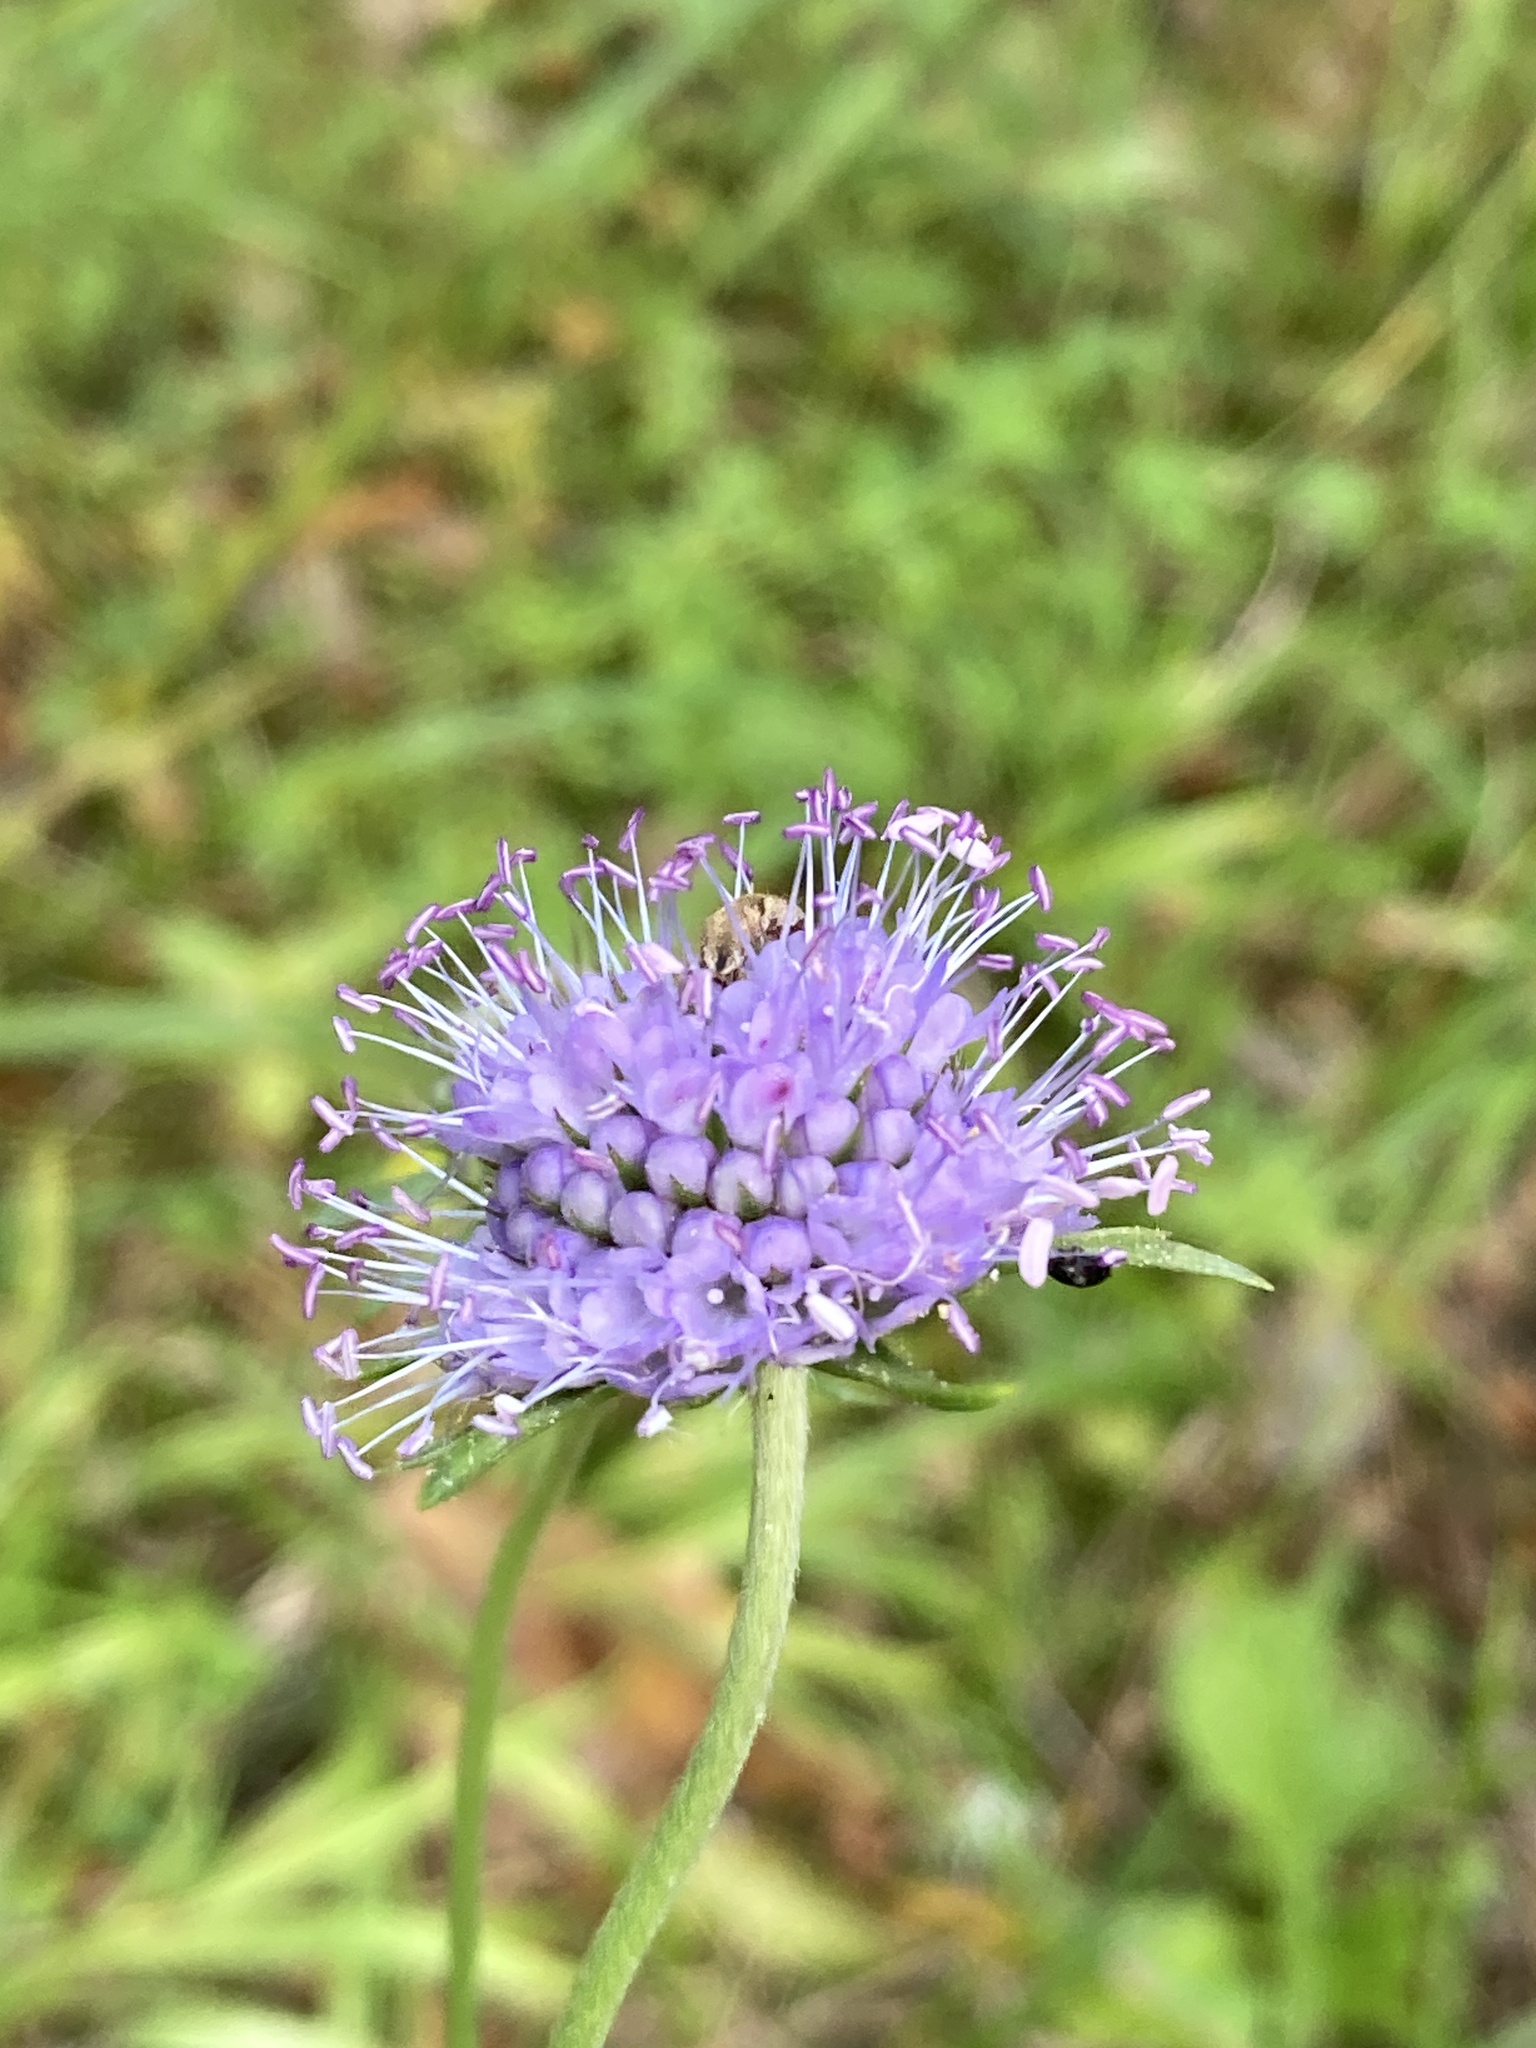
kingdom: Plantae
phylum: Tracheophyta
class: Magnoliopsida
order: Dipsacales
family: Caprifoliaceae
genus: Succisa
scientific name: Succisa pratensis
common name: Devil's-bit
